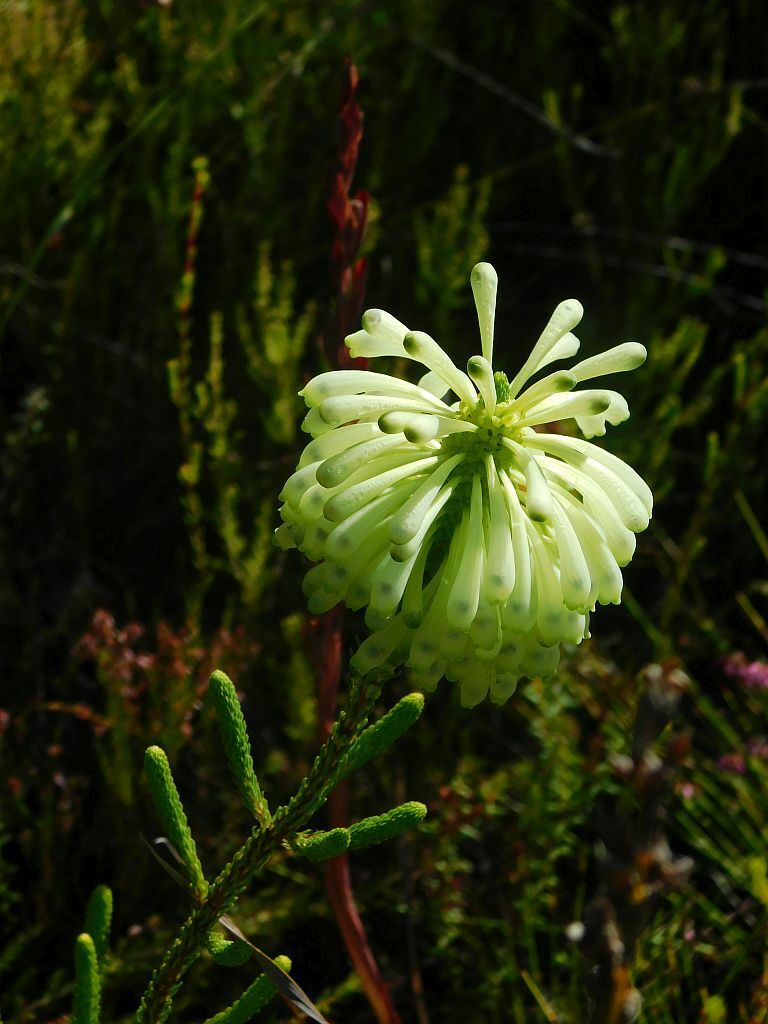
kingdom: Plantae
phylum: Tracheophyta
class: Magnoliopsida
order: Ericales
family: Ericaceae
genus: Erica
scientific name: Erica sessiliflora
